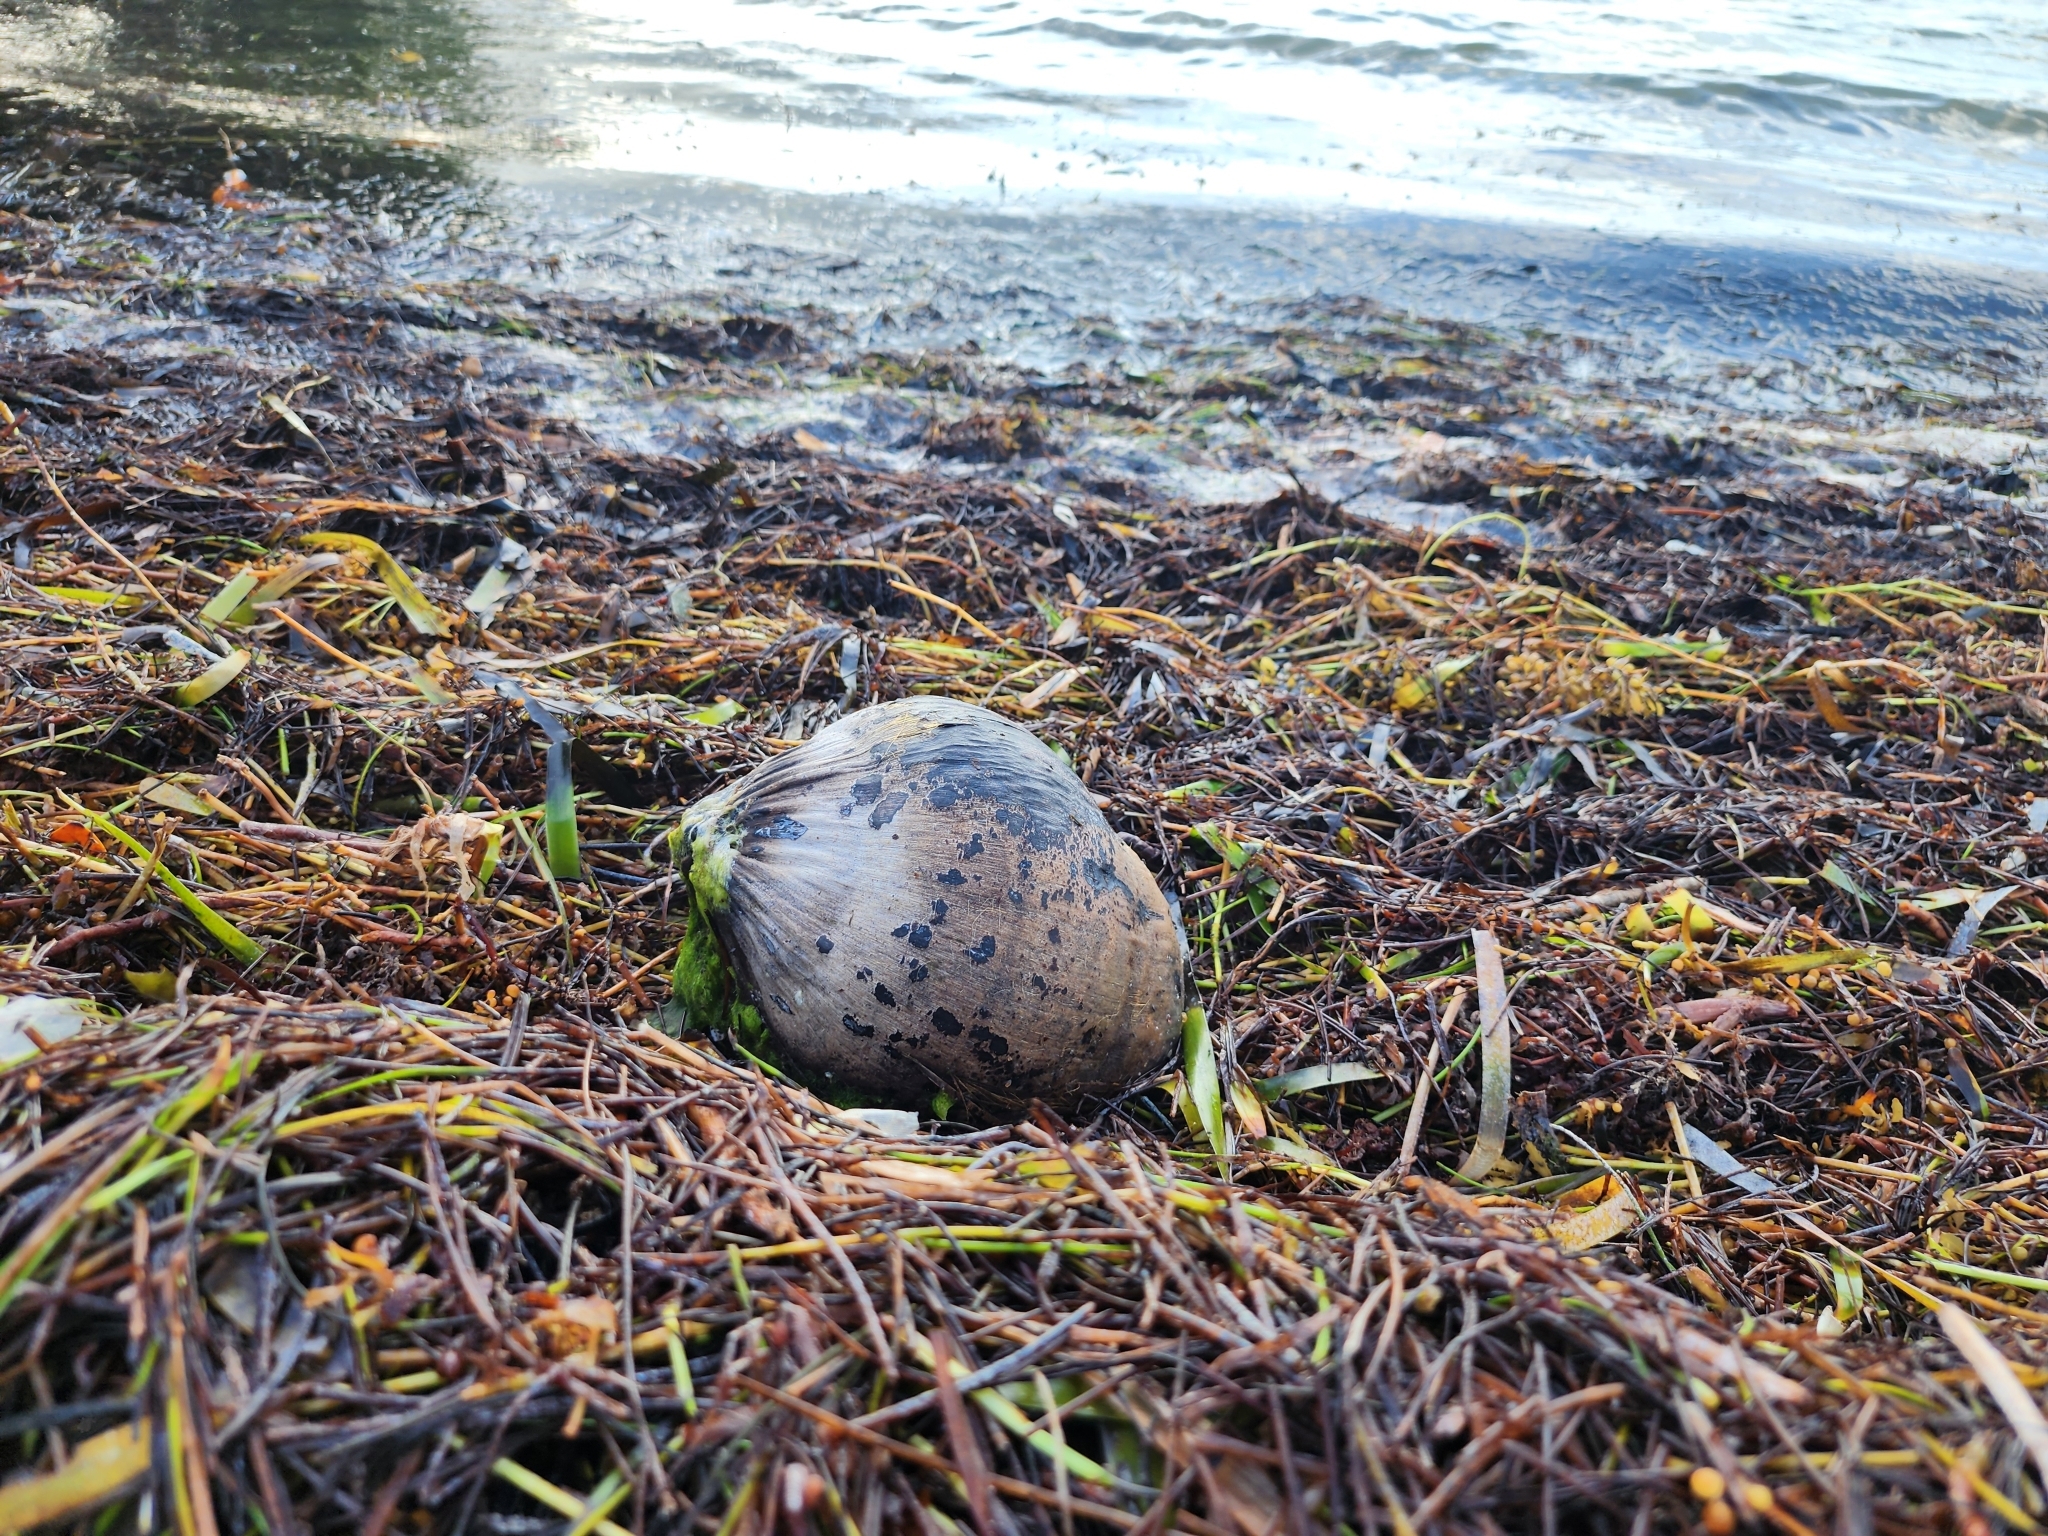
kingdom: Plantae
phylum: Tracheophyta
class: Liliopsida
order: Arecales
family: Arecaceae
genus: Cocos
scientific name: Cocos nucifera
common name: Coconut palm
